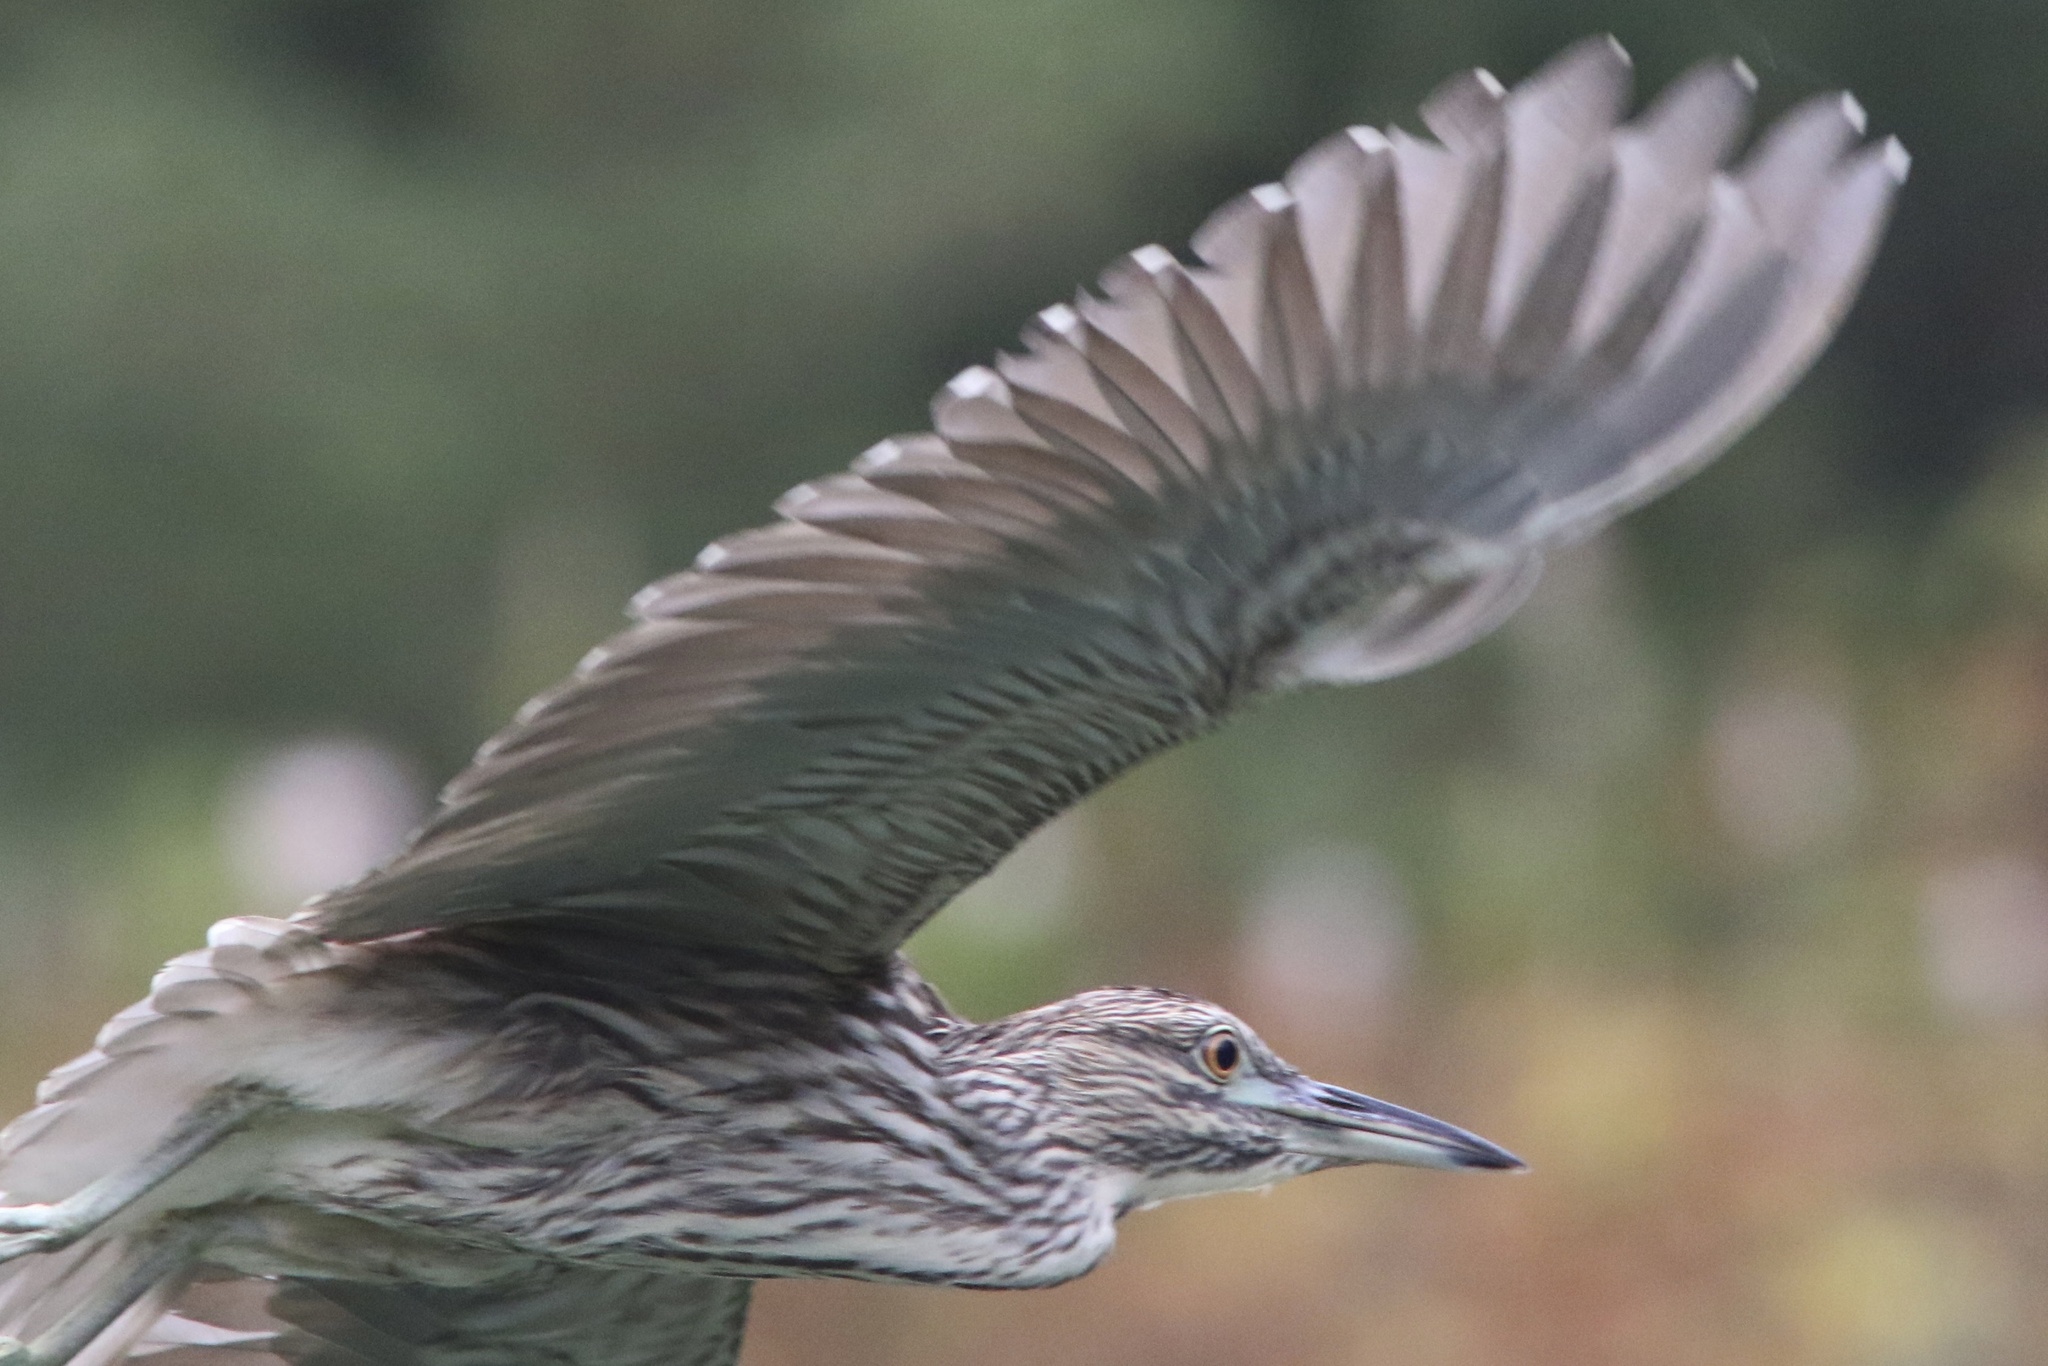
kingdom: Animalia
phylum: Chordata
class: Aves
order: Pelecaniformes
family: Ardeidae
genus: Nycticorax
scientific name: Nycticorax nycticorax
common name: Black-crowned night heron
